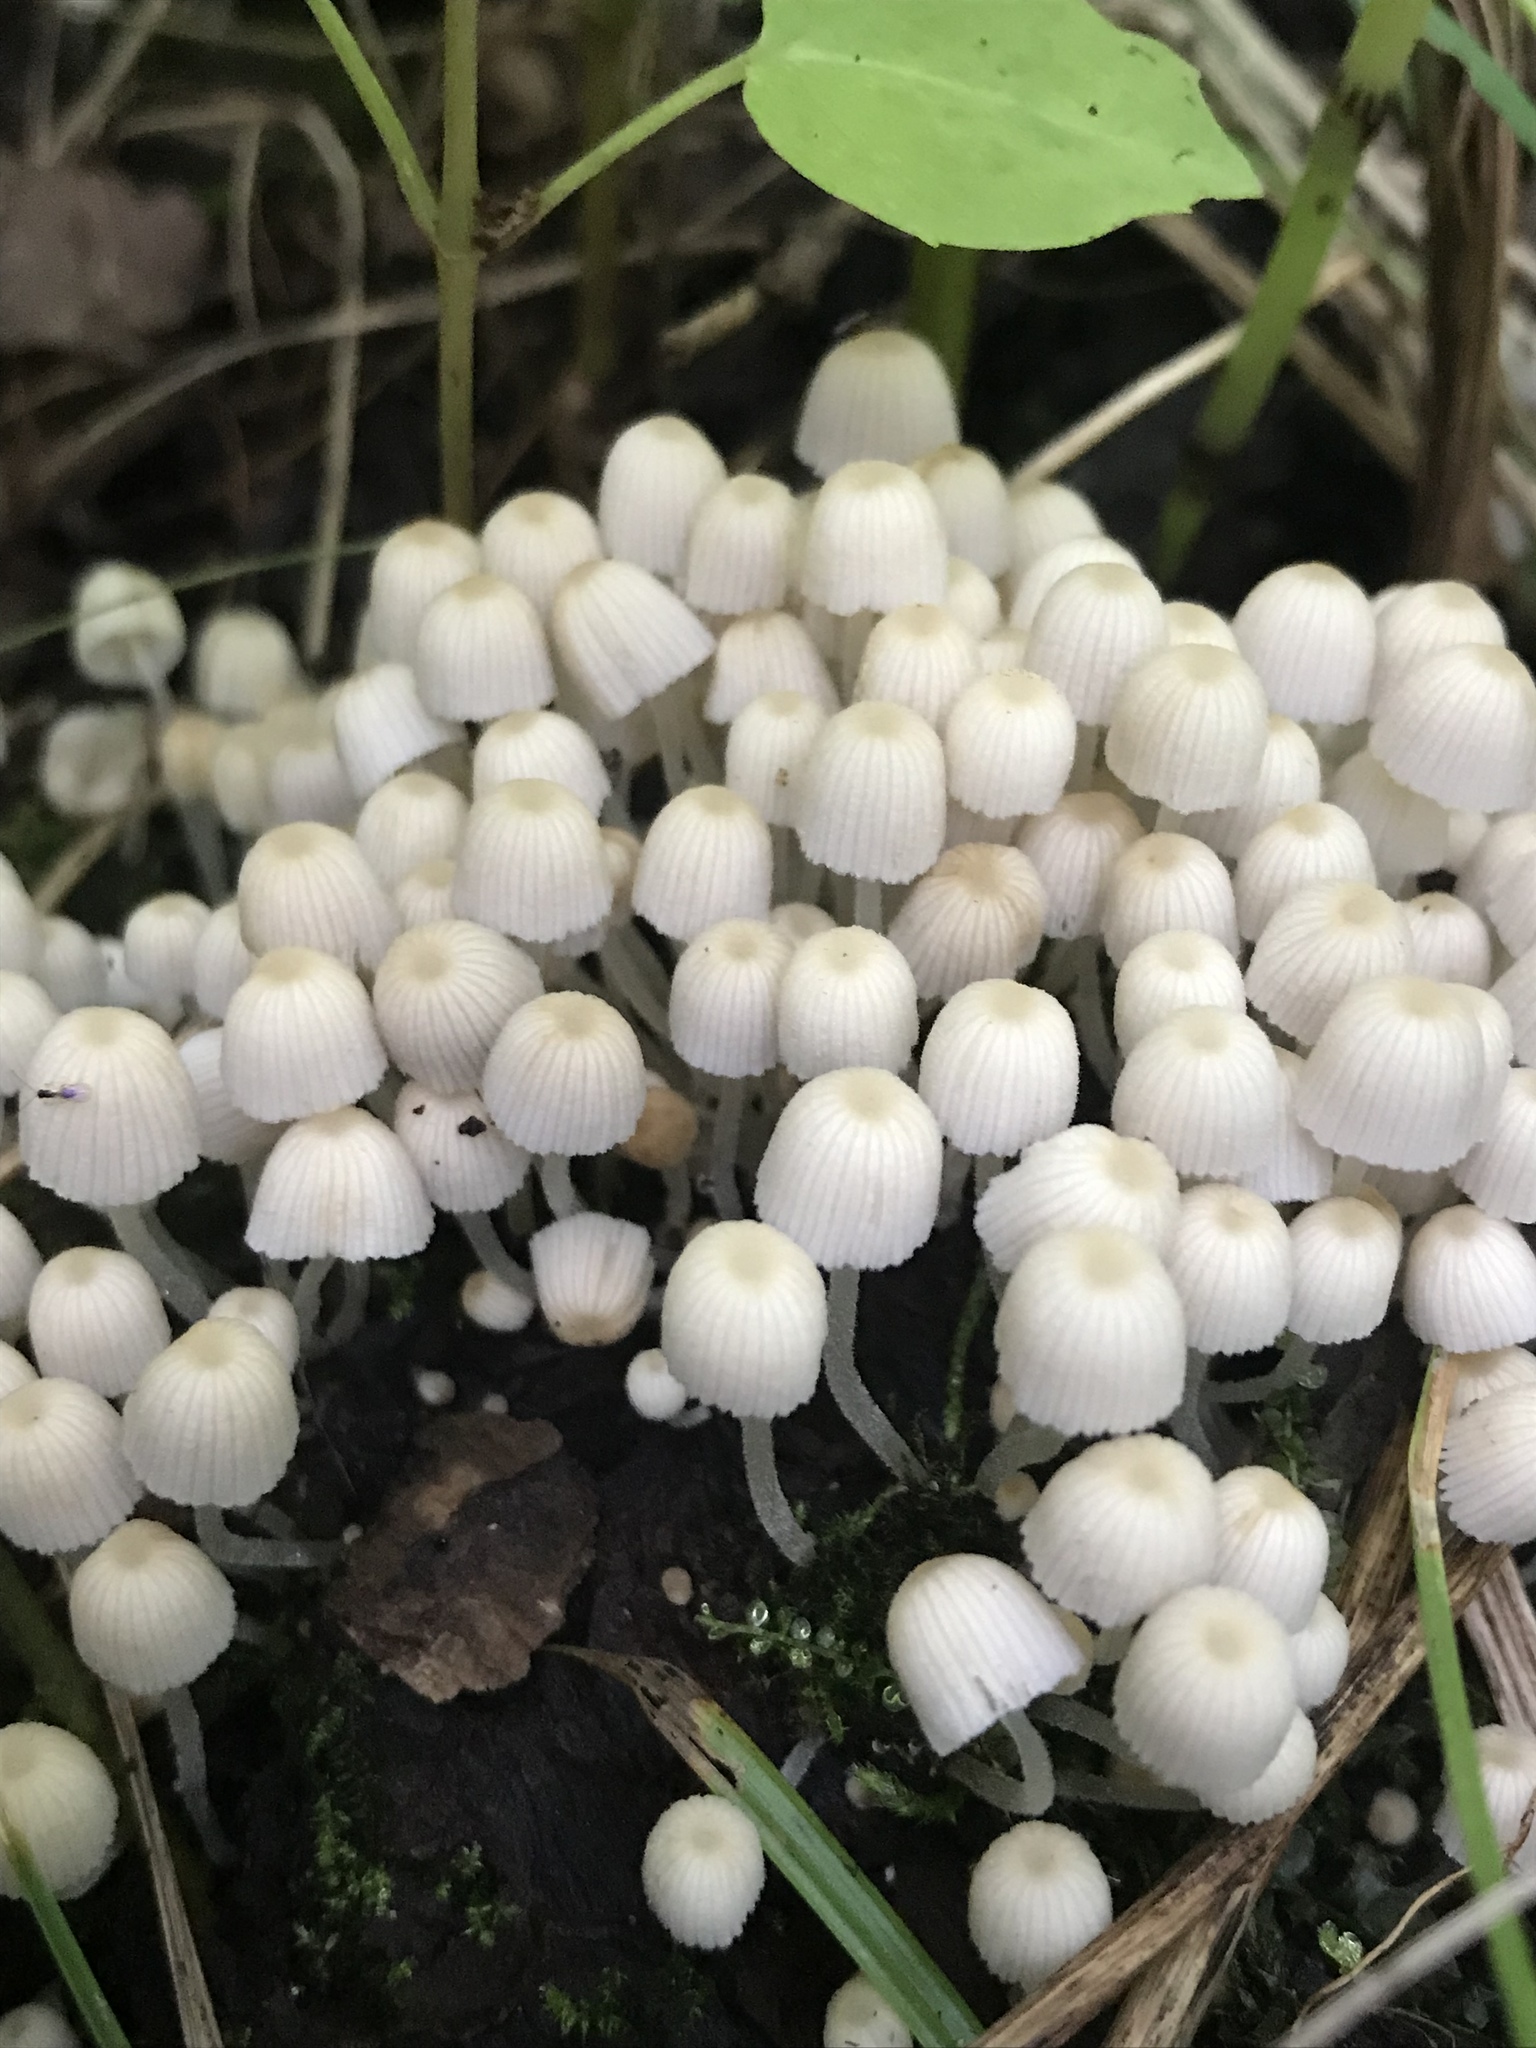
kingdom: Fungi
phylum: Basidiomycota
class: Agaricomycetes
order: Agaricales
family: Psathyrellaceae
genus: Coprinellus
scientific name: Coprinellus disseminatus
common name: Fairies' bonnets
